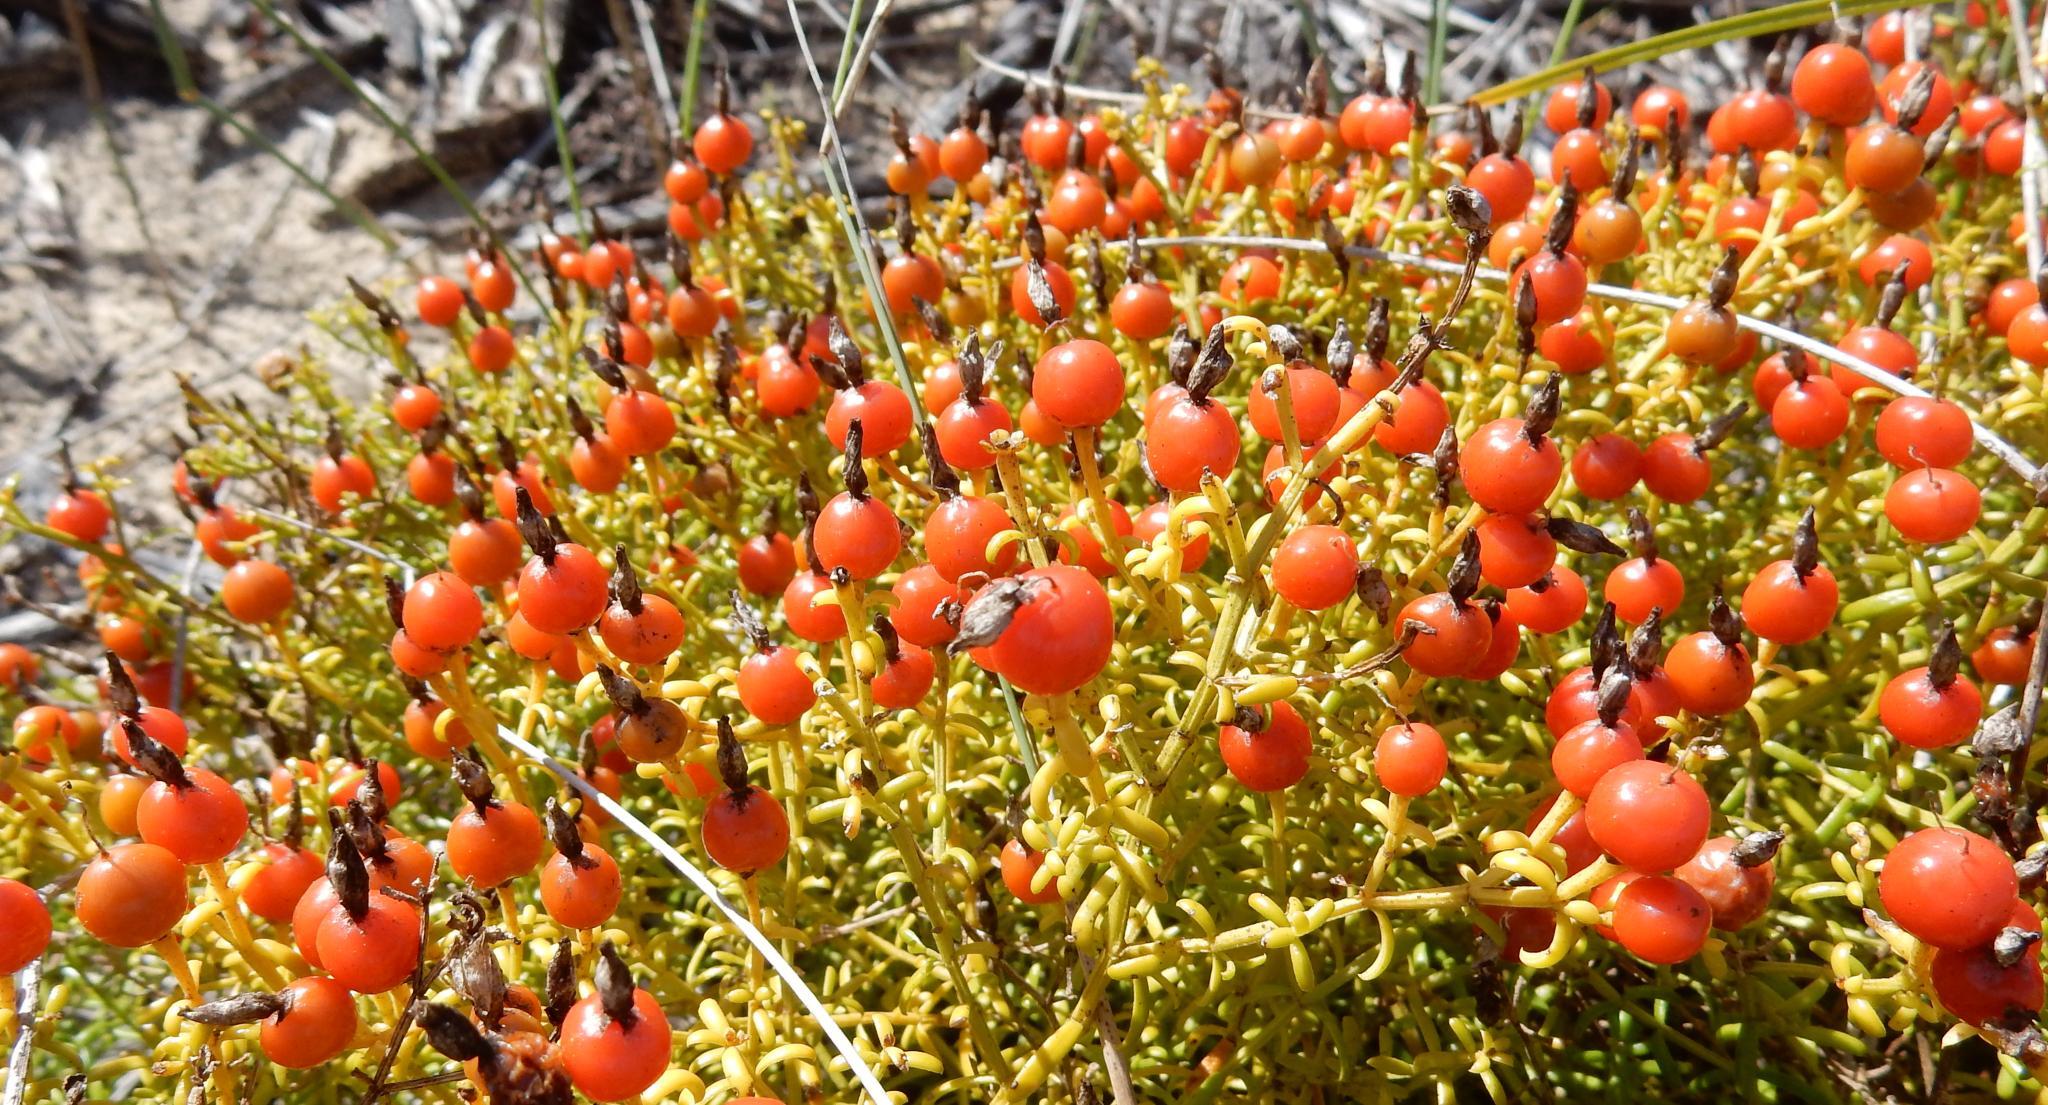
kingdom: Plantae
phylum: Tracheophyta
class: Magnoliopsida
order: Gentianales
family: Gentianaceae
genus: Chironia
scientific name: Chironia baccifera
